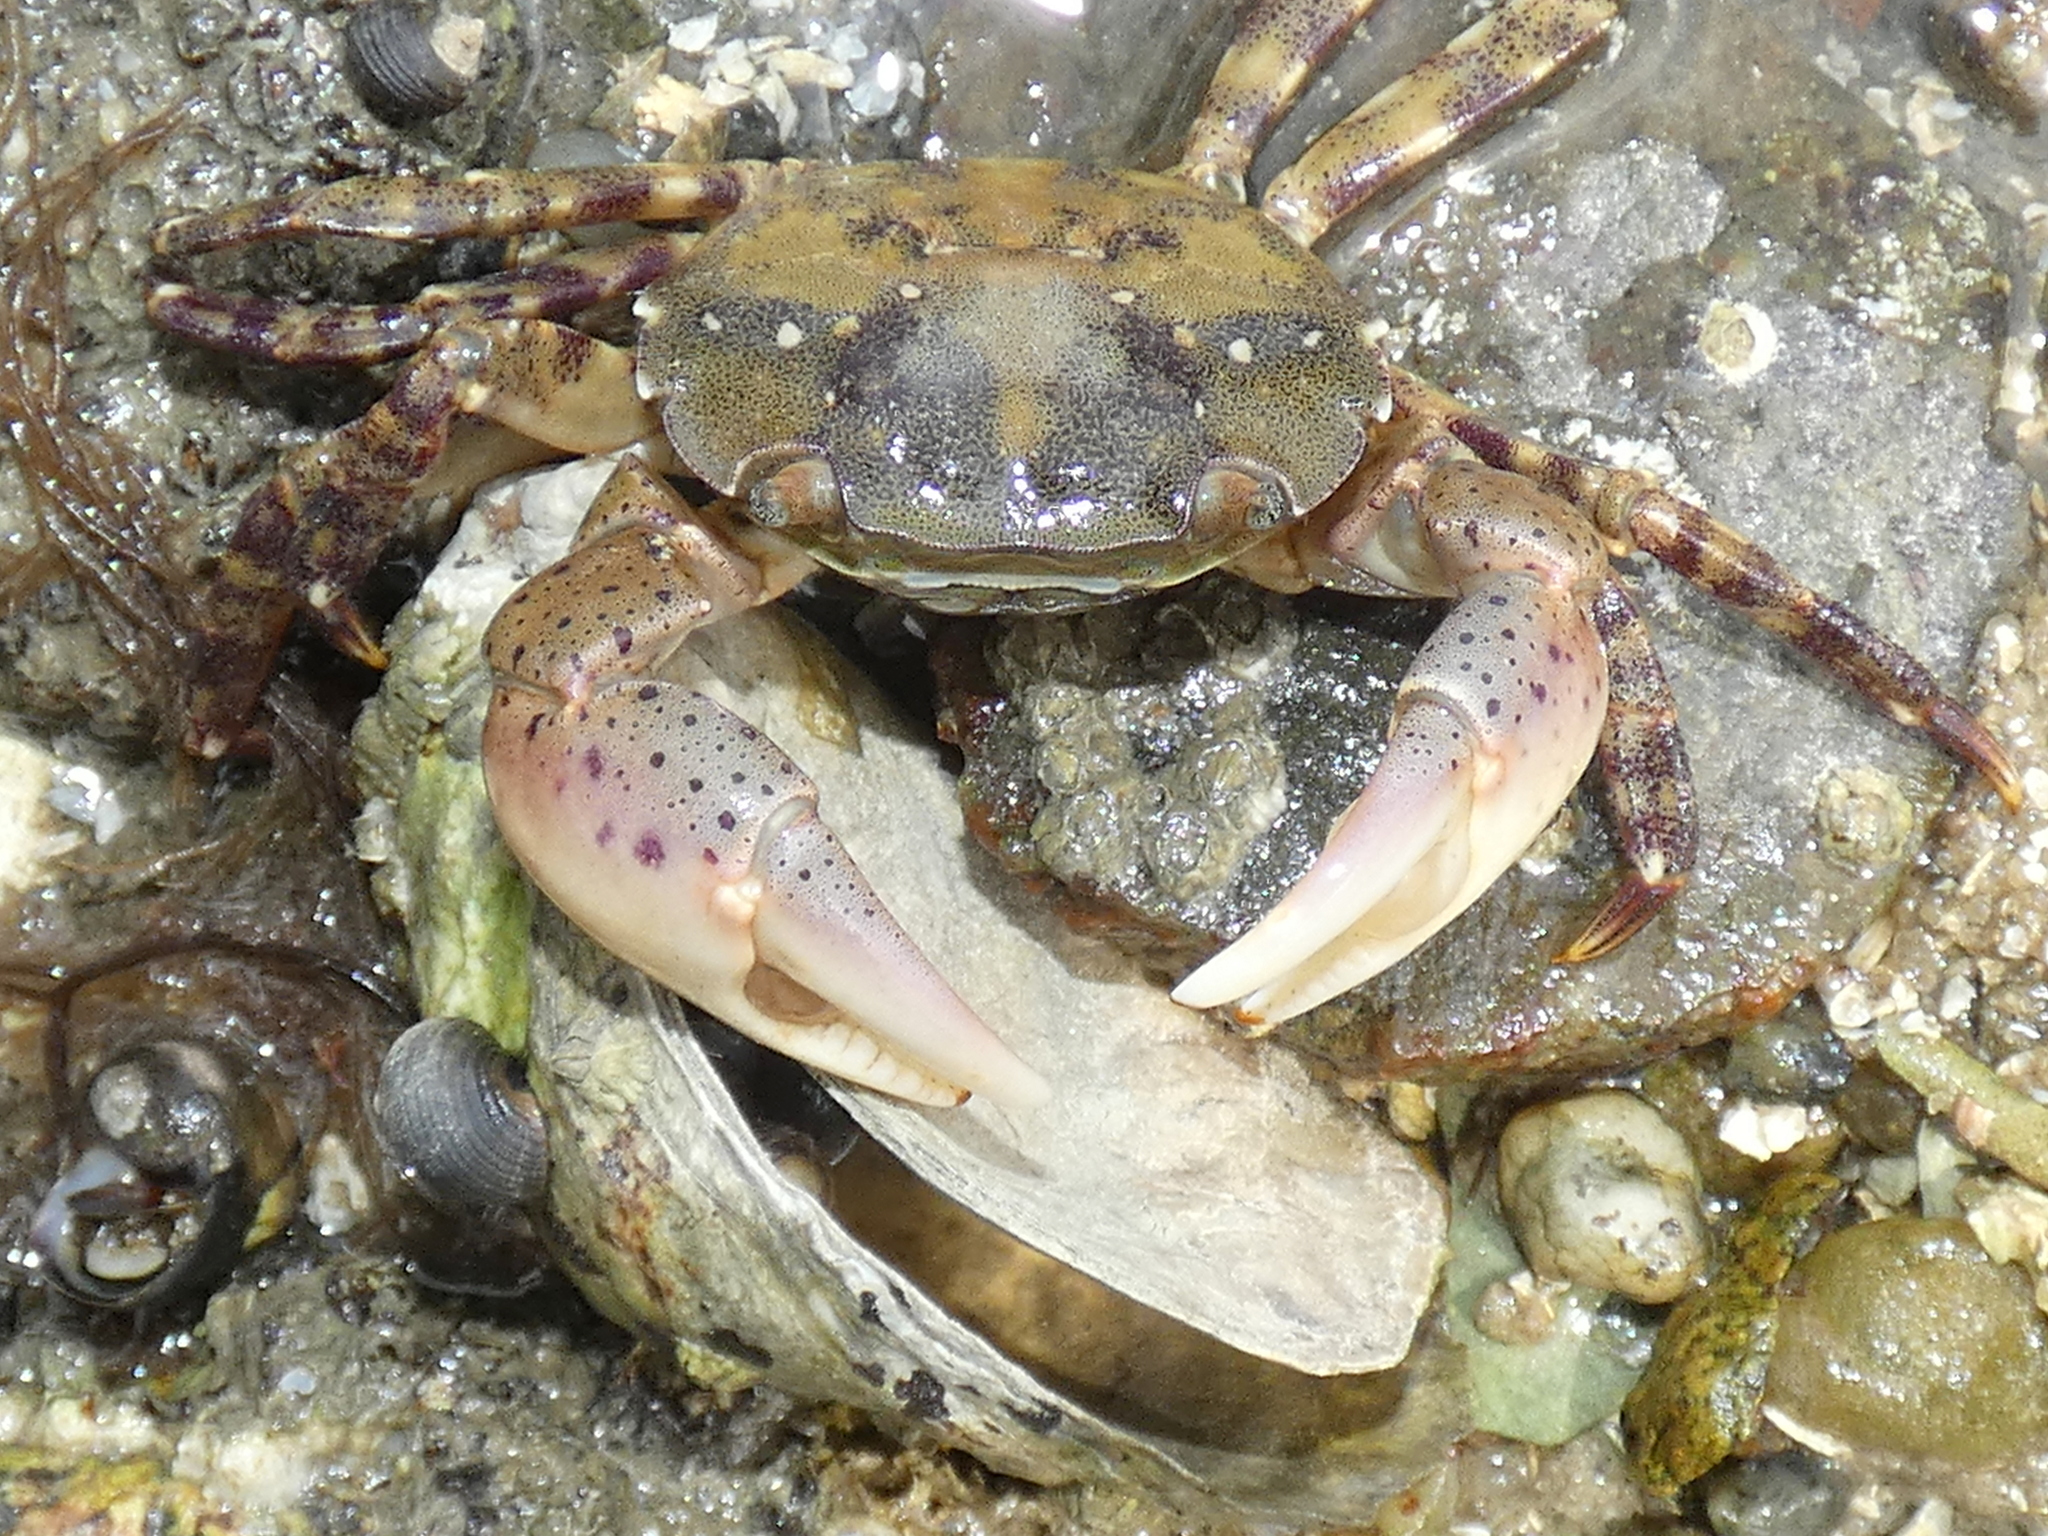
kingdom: Animalia
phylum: Arthropoda
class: Malacostraca
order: Decapoda
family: Varunidae
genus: Hemigrapsus
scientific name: Hemigrapsus sanguineus
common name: Asian shore crab
